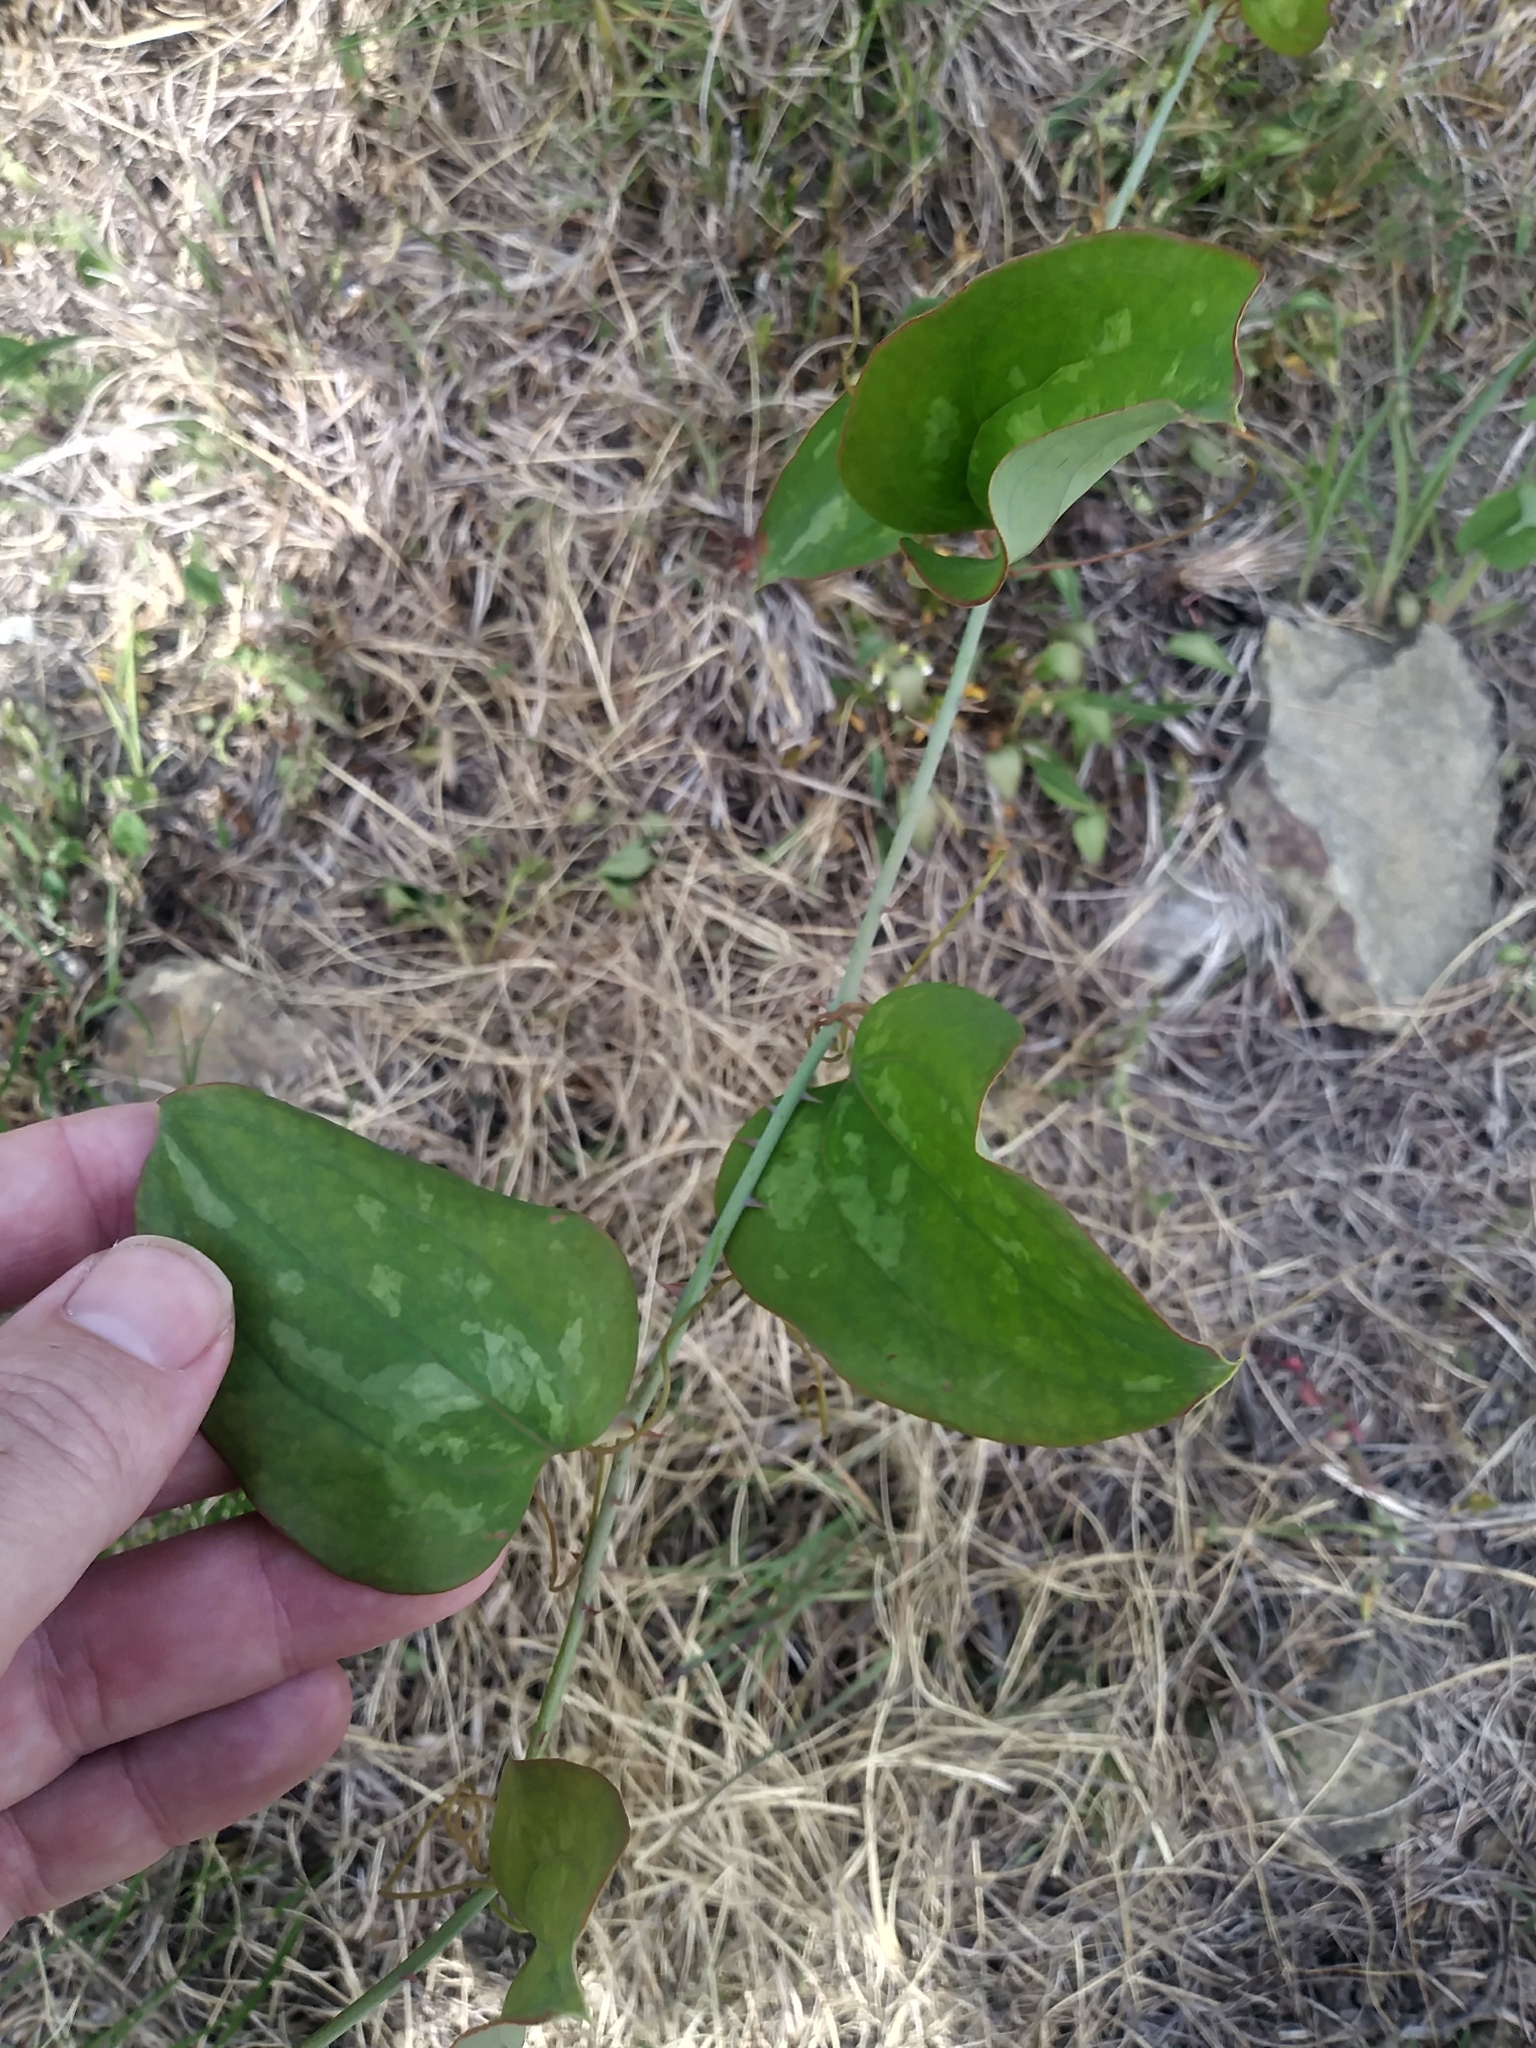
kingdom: Plantae
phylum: Tracheophyta
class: Liliopsida
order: Liliales
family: Smilacaceae
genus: Smilax
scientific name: Smilax glauca
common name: Cat greenbrier
